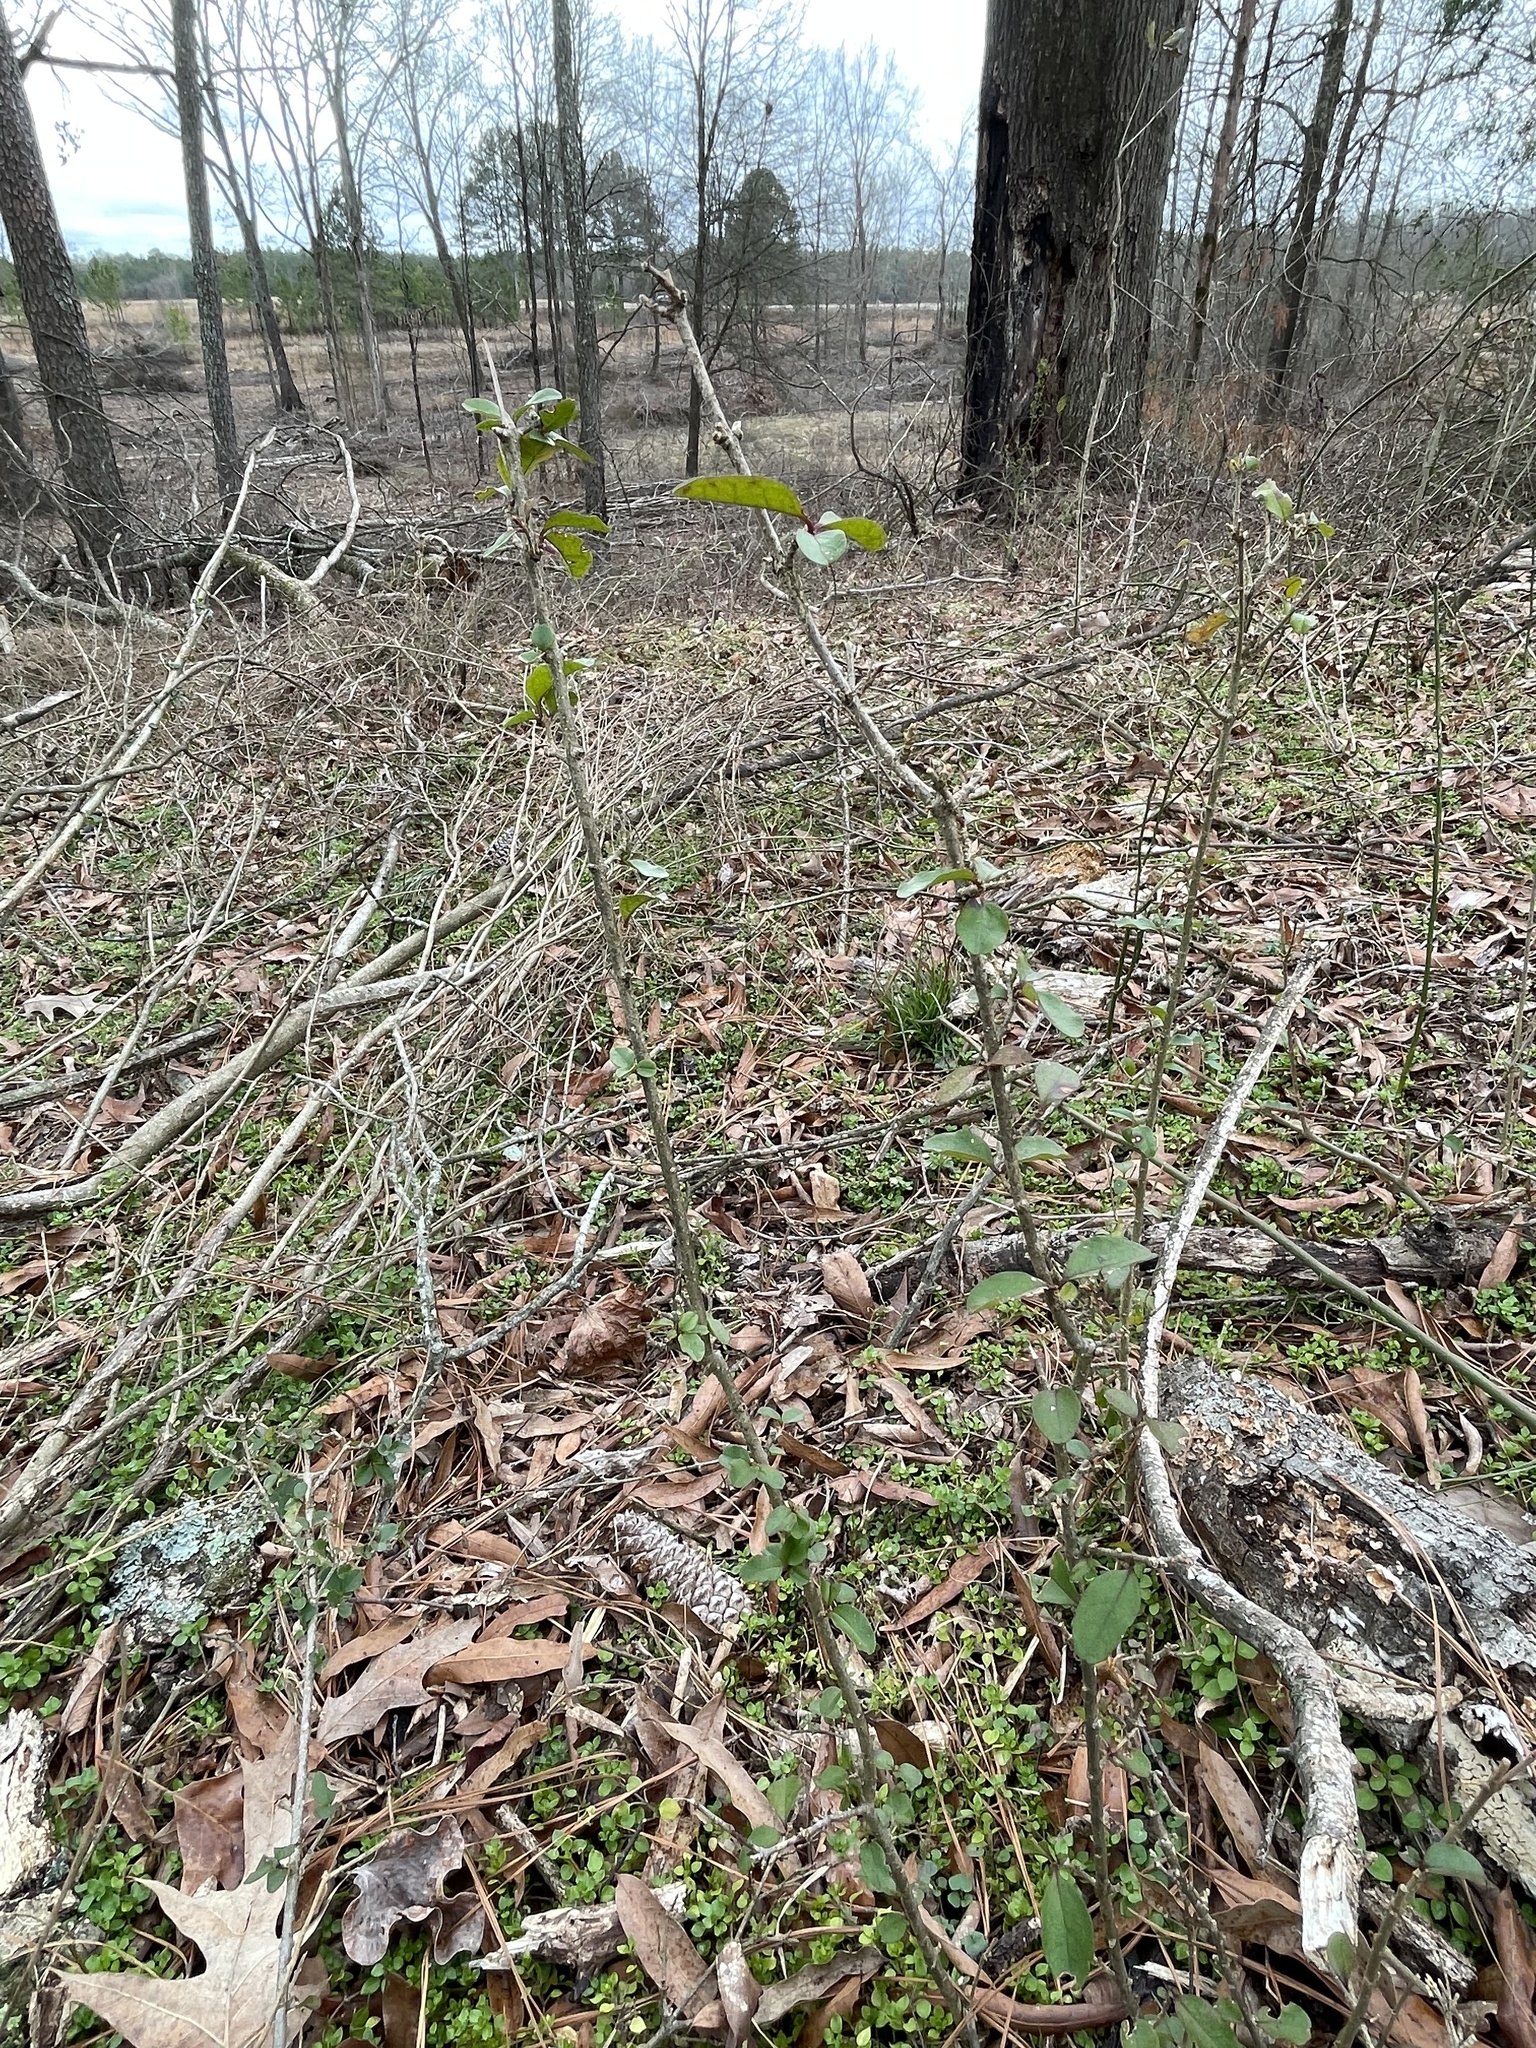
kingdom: Plantae
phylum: Tracheophyta
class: Magnoliopsida
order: Lamiales
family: Oleaceae
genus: Ligustrum
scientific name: Ligustrum sinense
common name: Chinese privet
